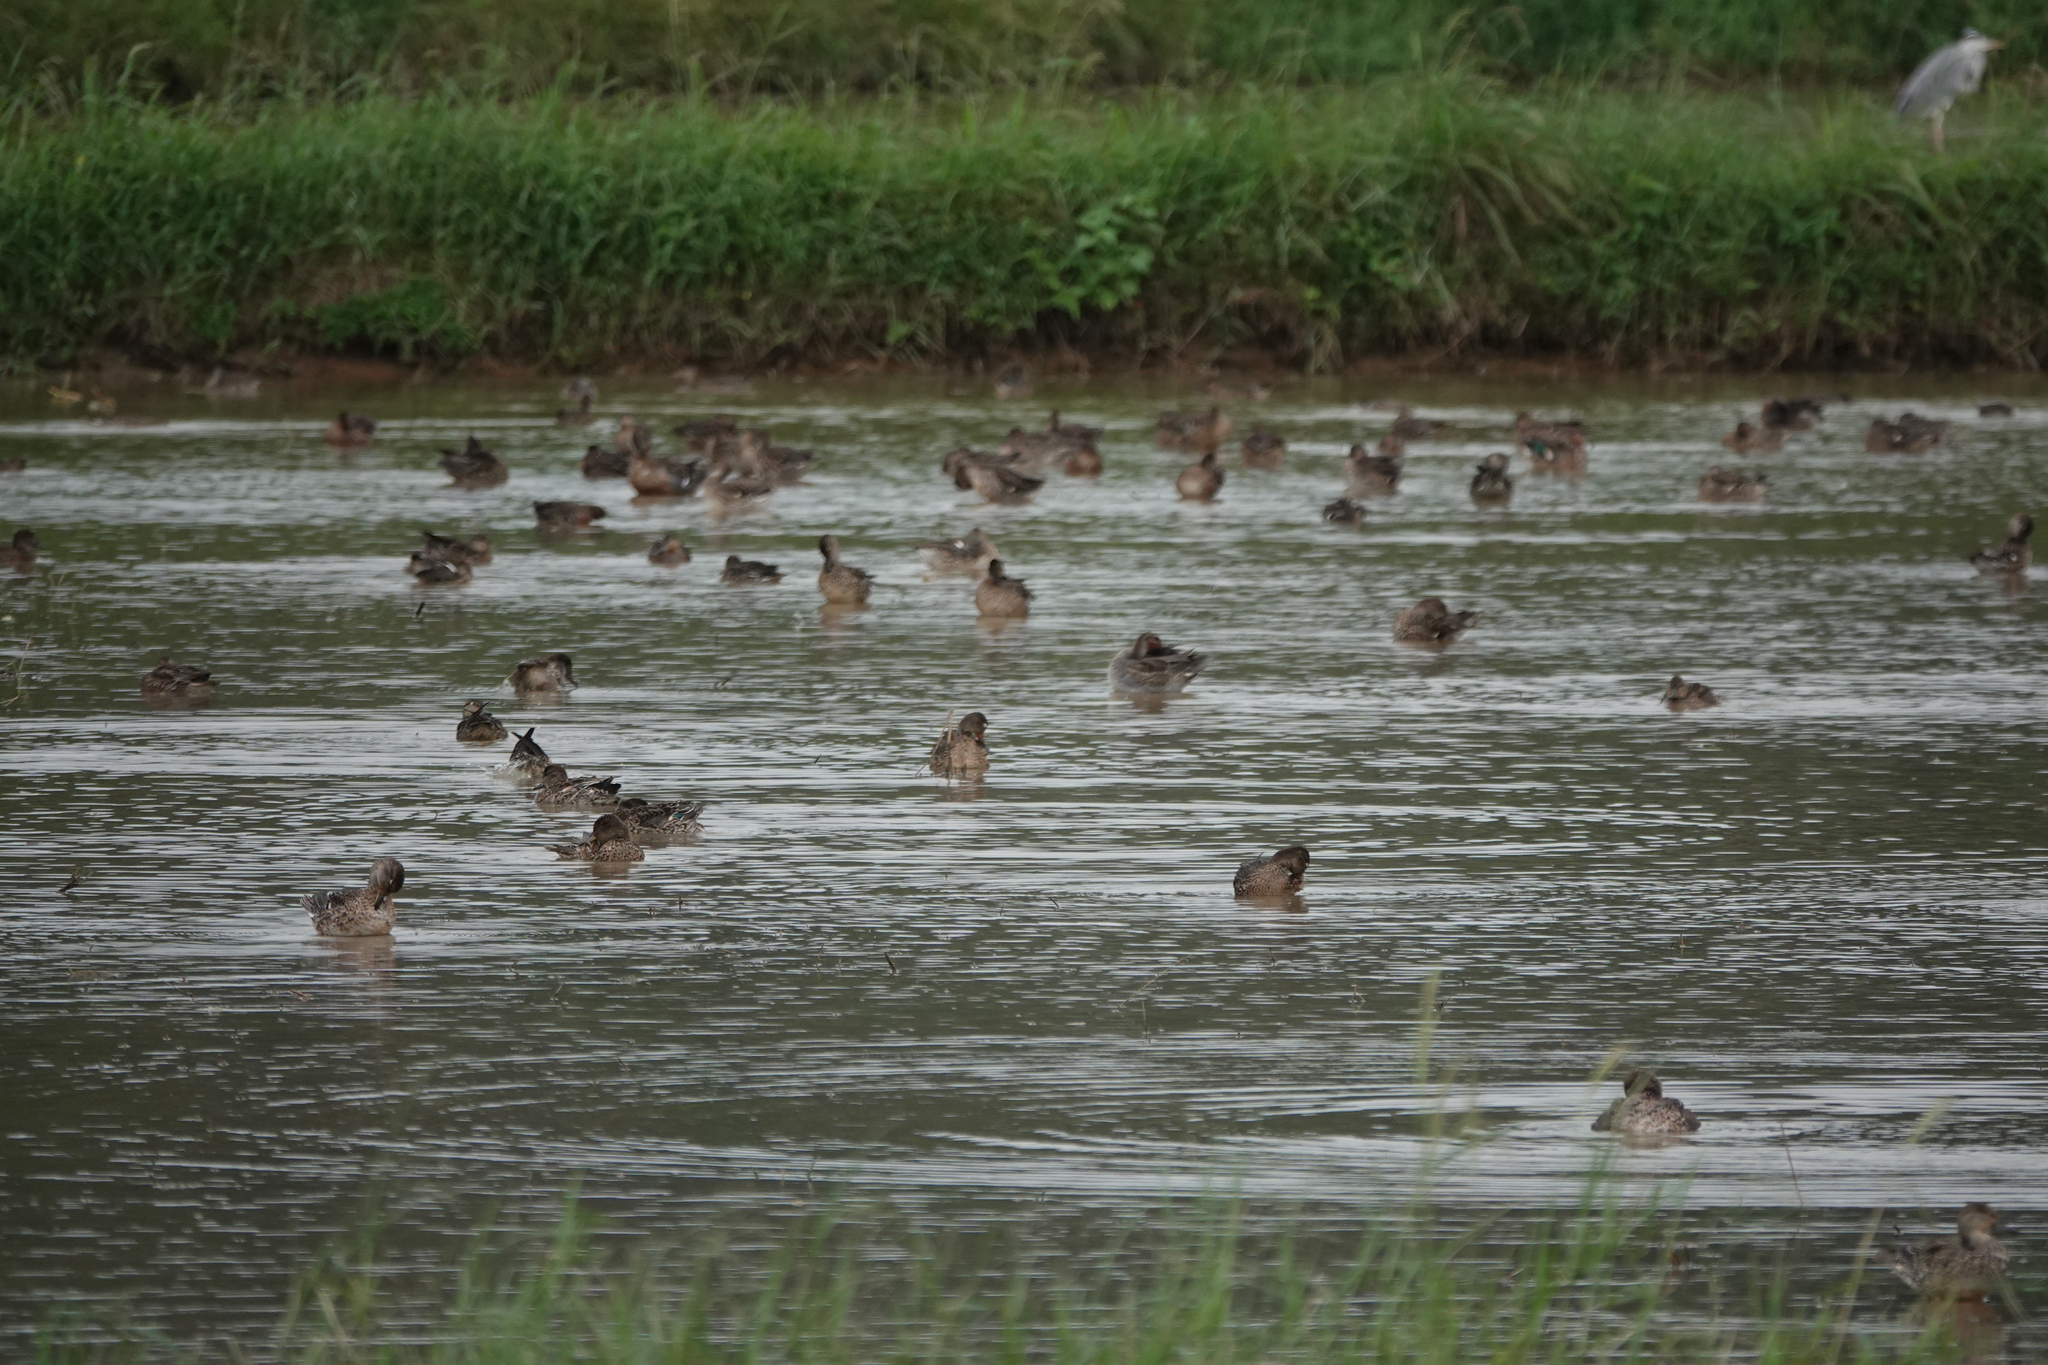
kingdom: Animalia
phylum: Chordata
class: Aves
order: Anseriformes
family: Anatidae
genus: Anas
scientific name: Anas crecca
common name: Eurasian teal
